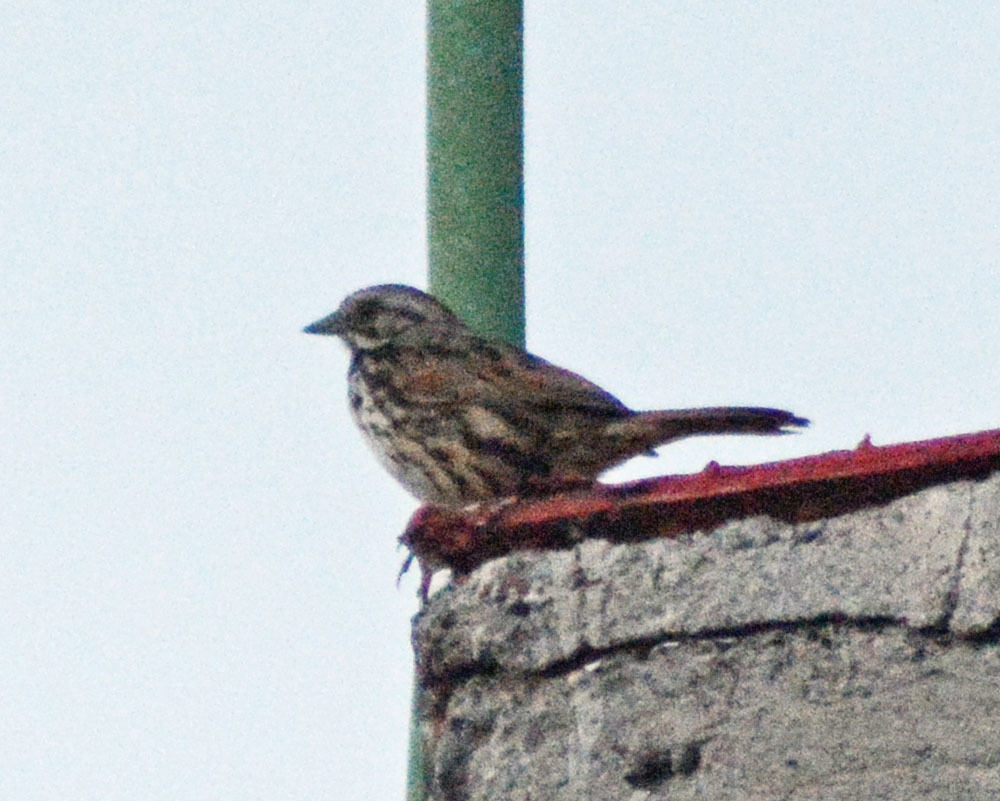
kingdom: Animalia
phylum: Chordata
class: Aves
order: Passeriformes
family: Passerellidae
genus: Melospiza
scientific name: Melospiza melodia
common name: Song sparrow
